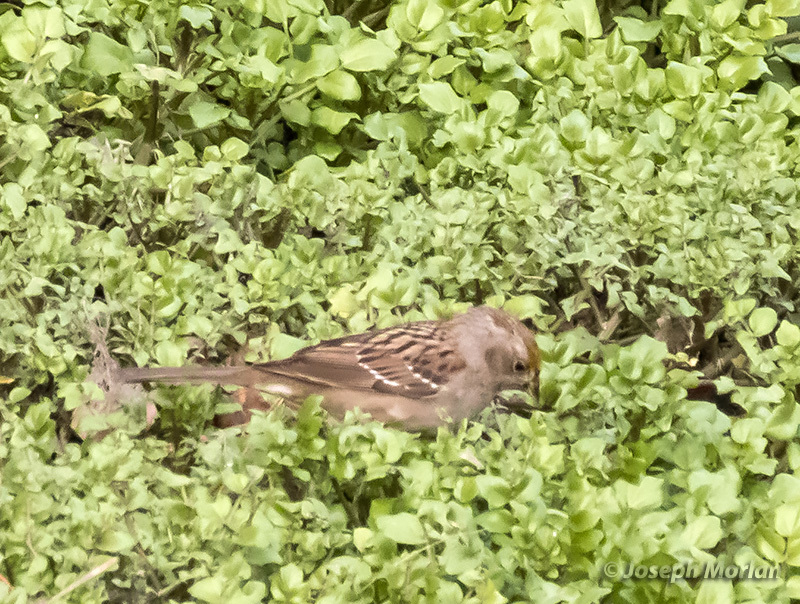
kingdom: Animalia
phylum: Chordata
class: Aves
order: Passeriformes
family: Passerellidae
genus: Zonotrichia
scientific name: Zonotrichia atricapilla
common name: Golden-crowned sparrow
